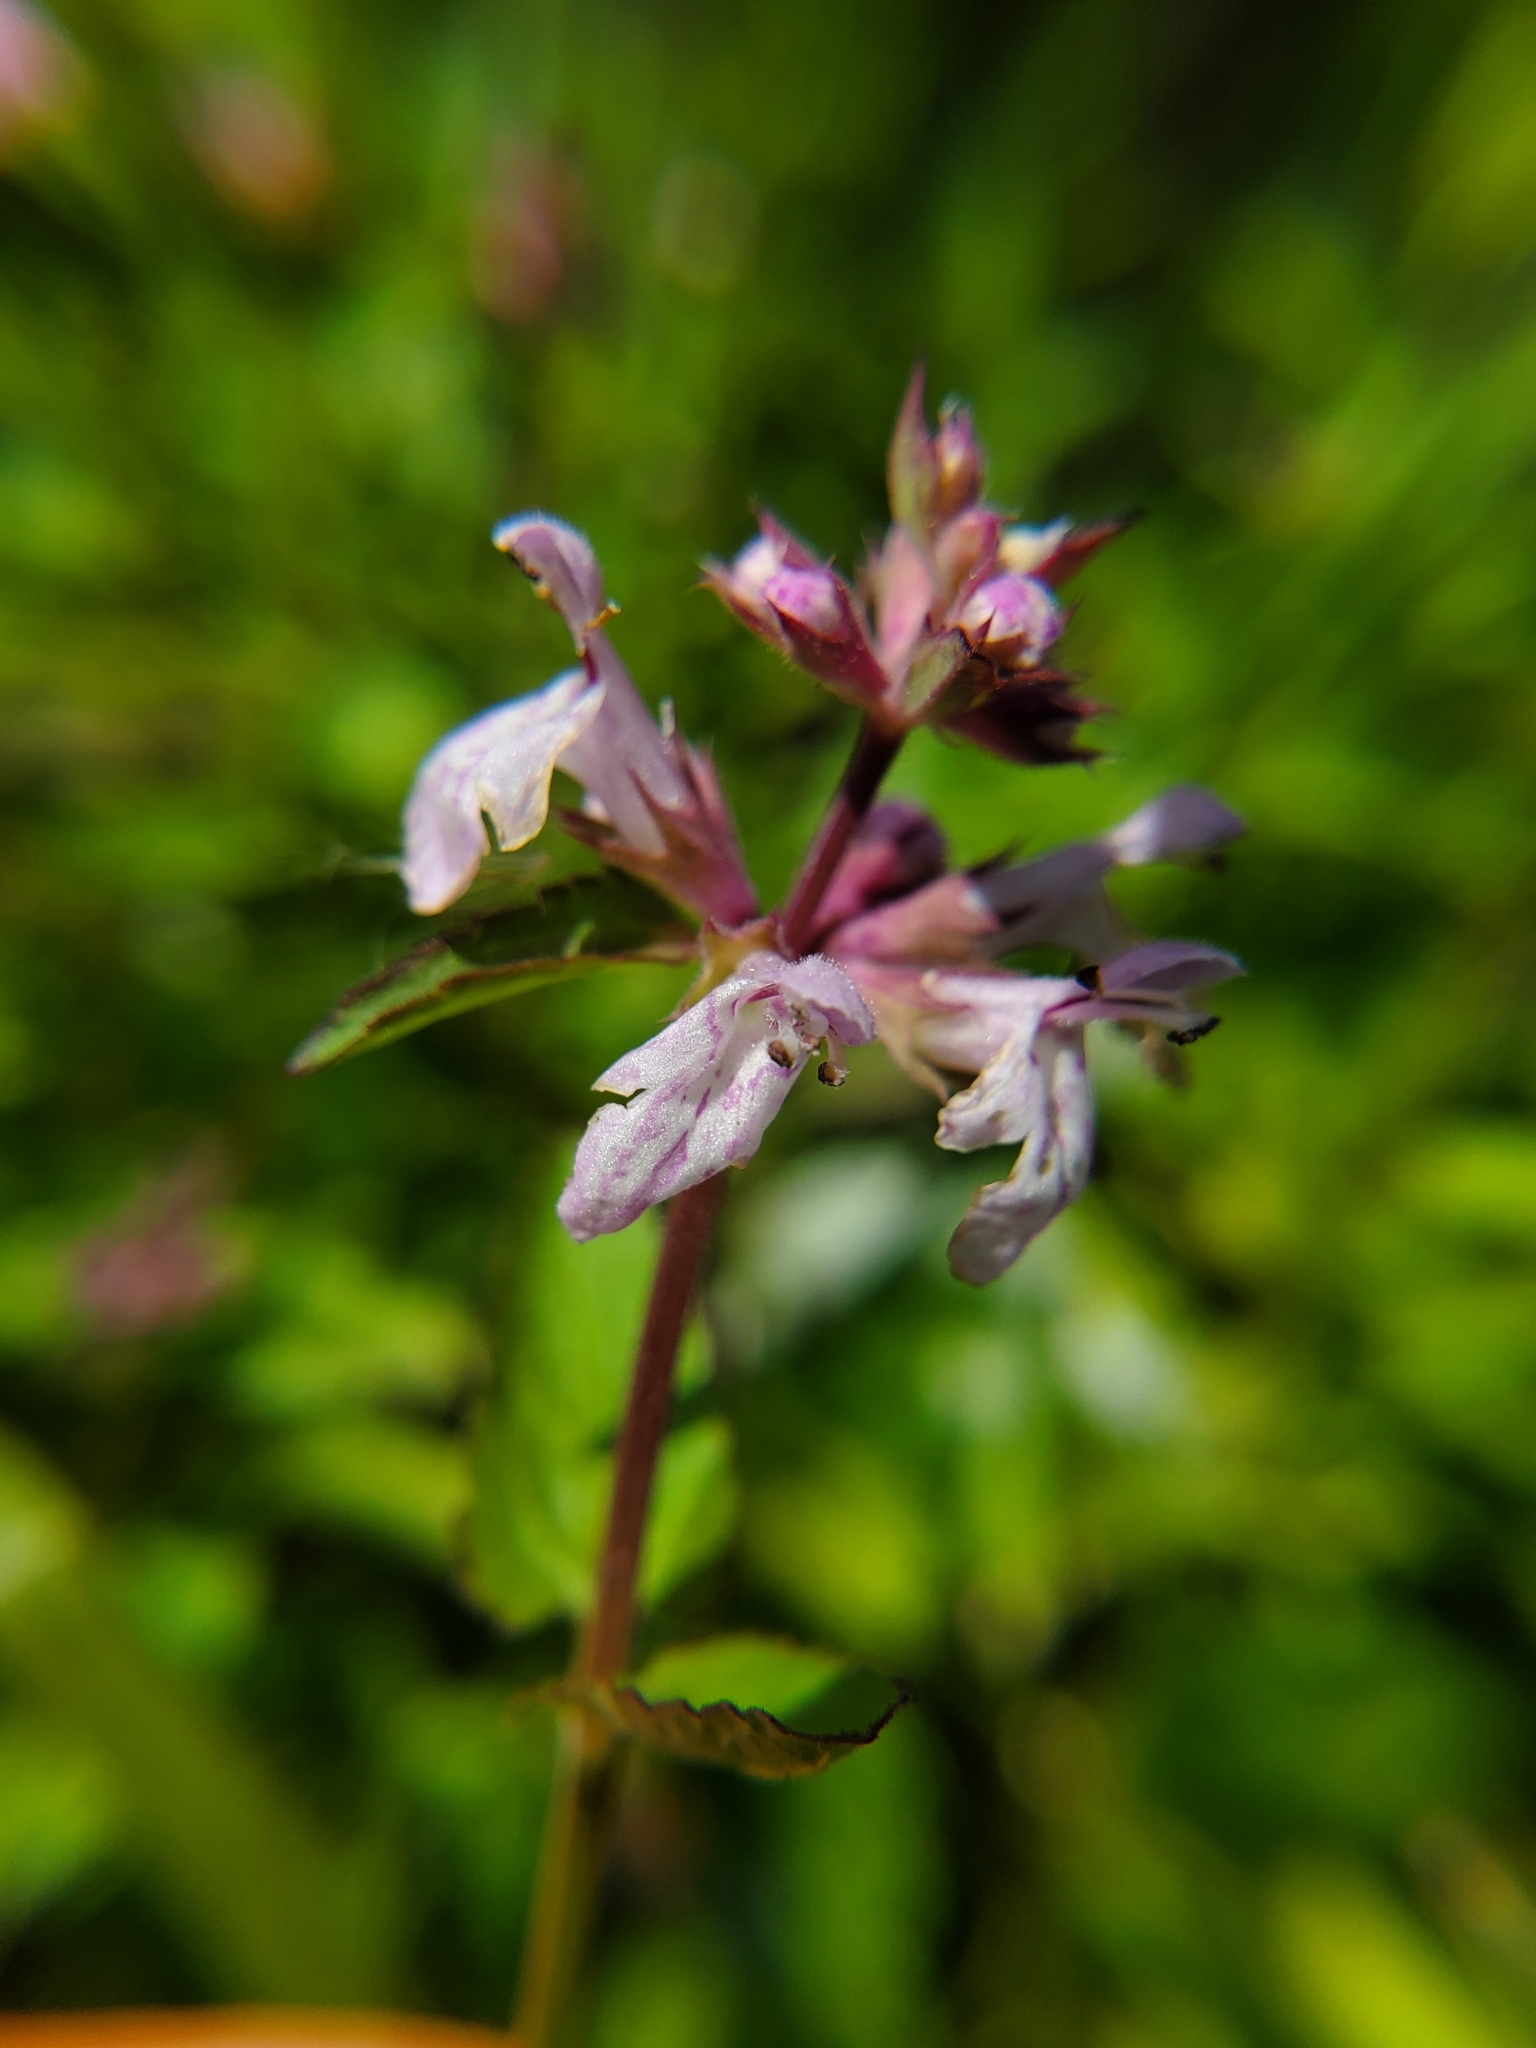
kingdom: Plantae
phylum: Tracheophyta
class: Magnoliopsida
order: Lamiales
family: Lamiaceae
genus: Stachys
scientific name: Stachys floridana
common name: Florida betony
